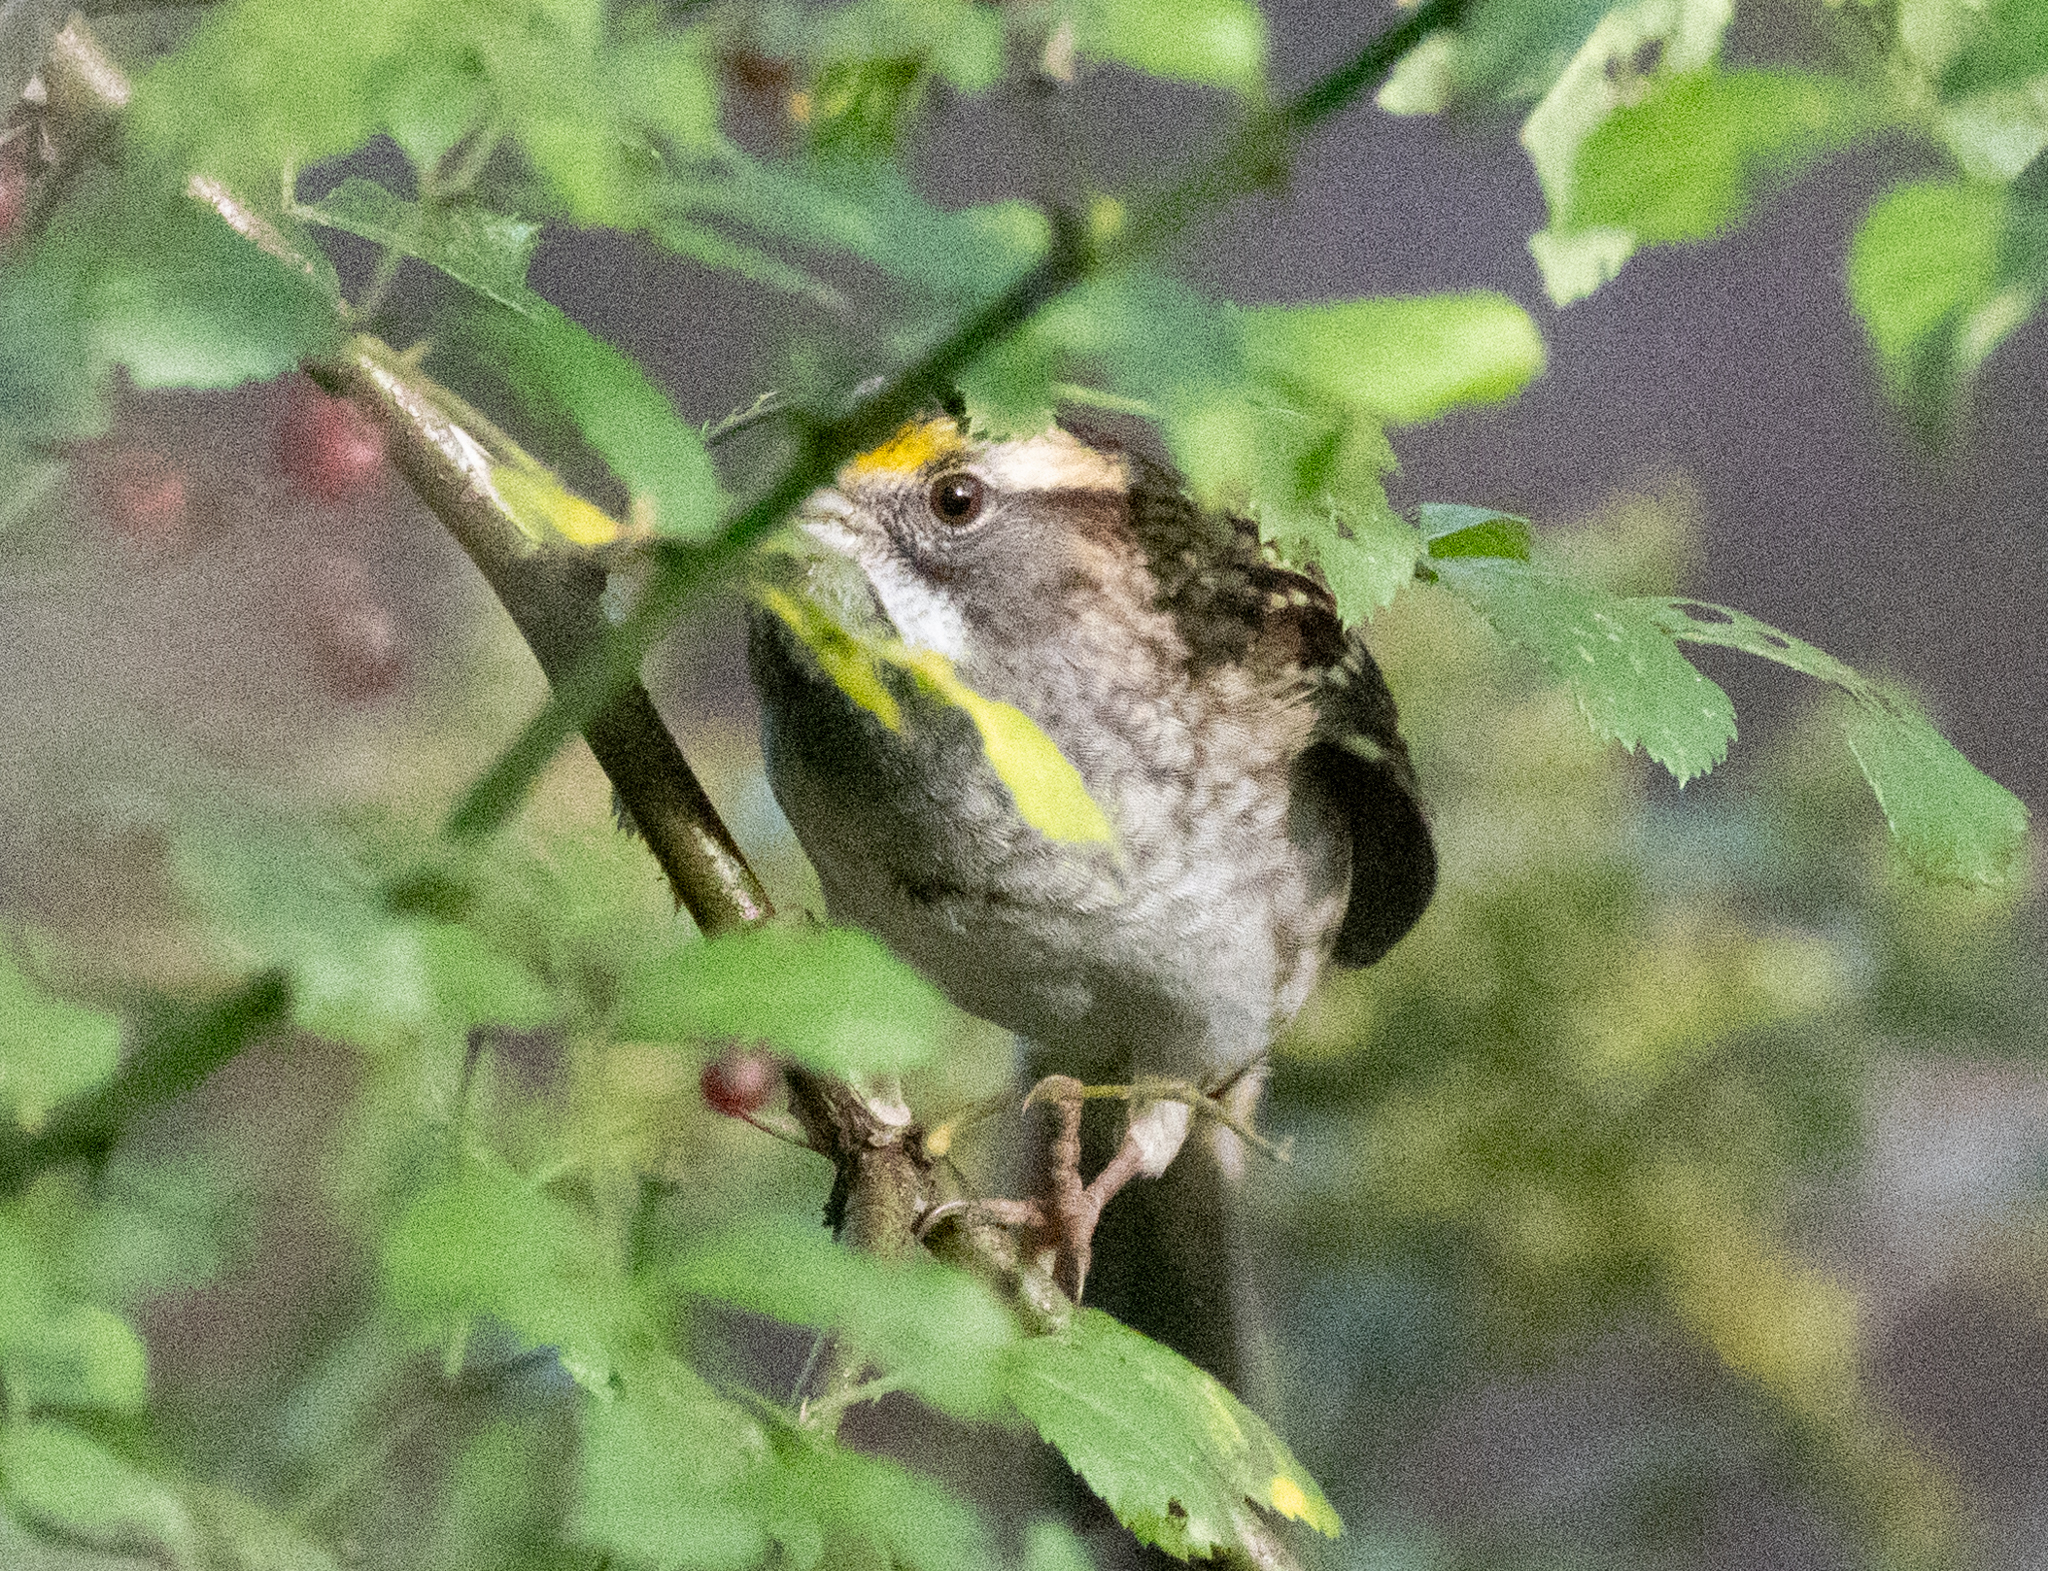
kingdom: Animalia
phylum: Chordata
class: Aves
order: Passeriformes
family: Passerellidae
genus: Zonotrichia
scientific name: Zonotrichia albicollis
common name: White-throated sparrow
